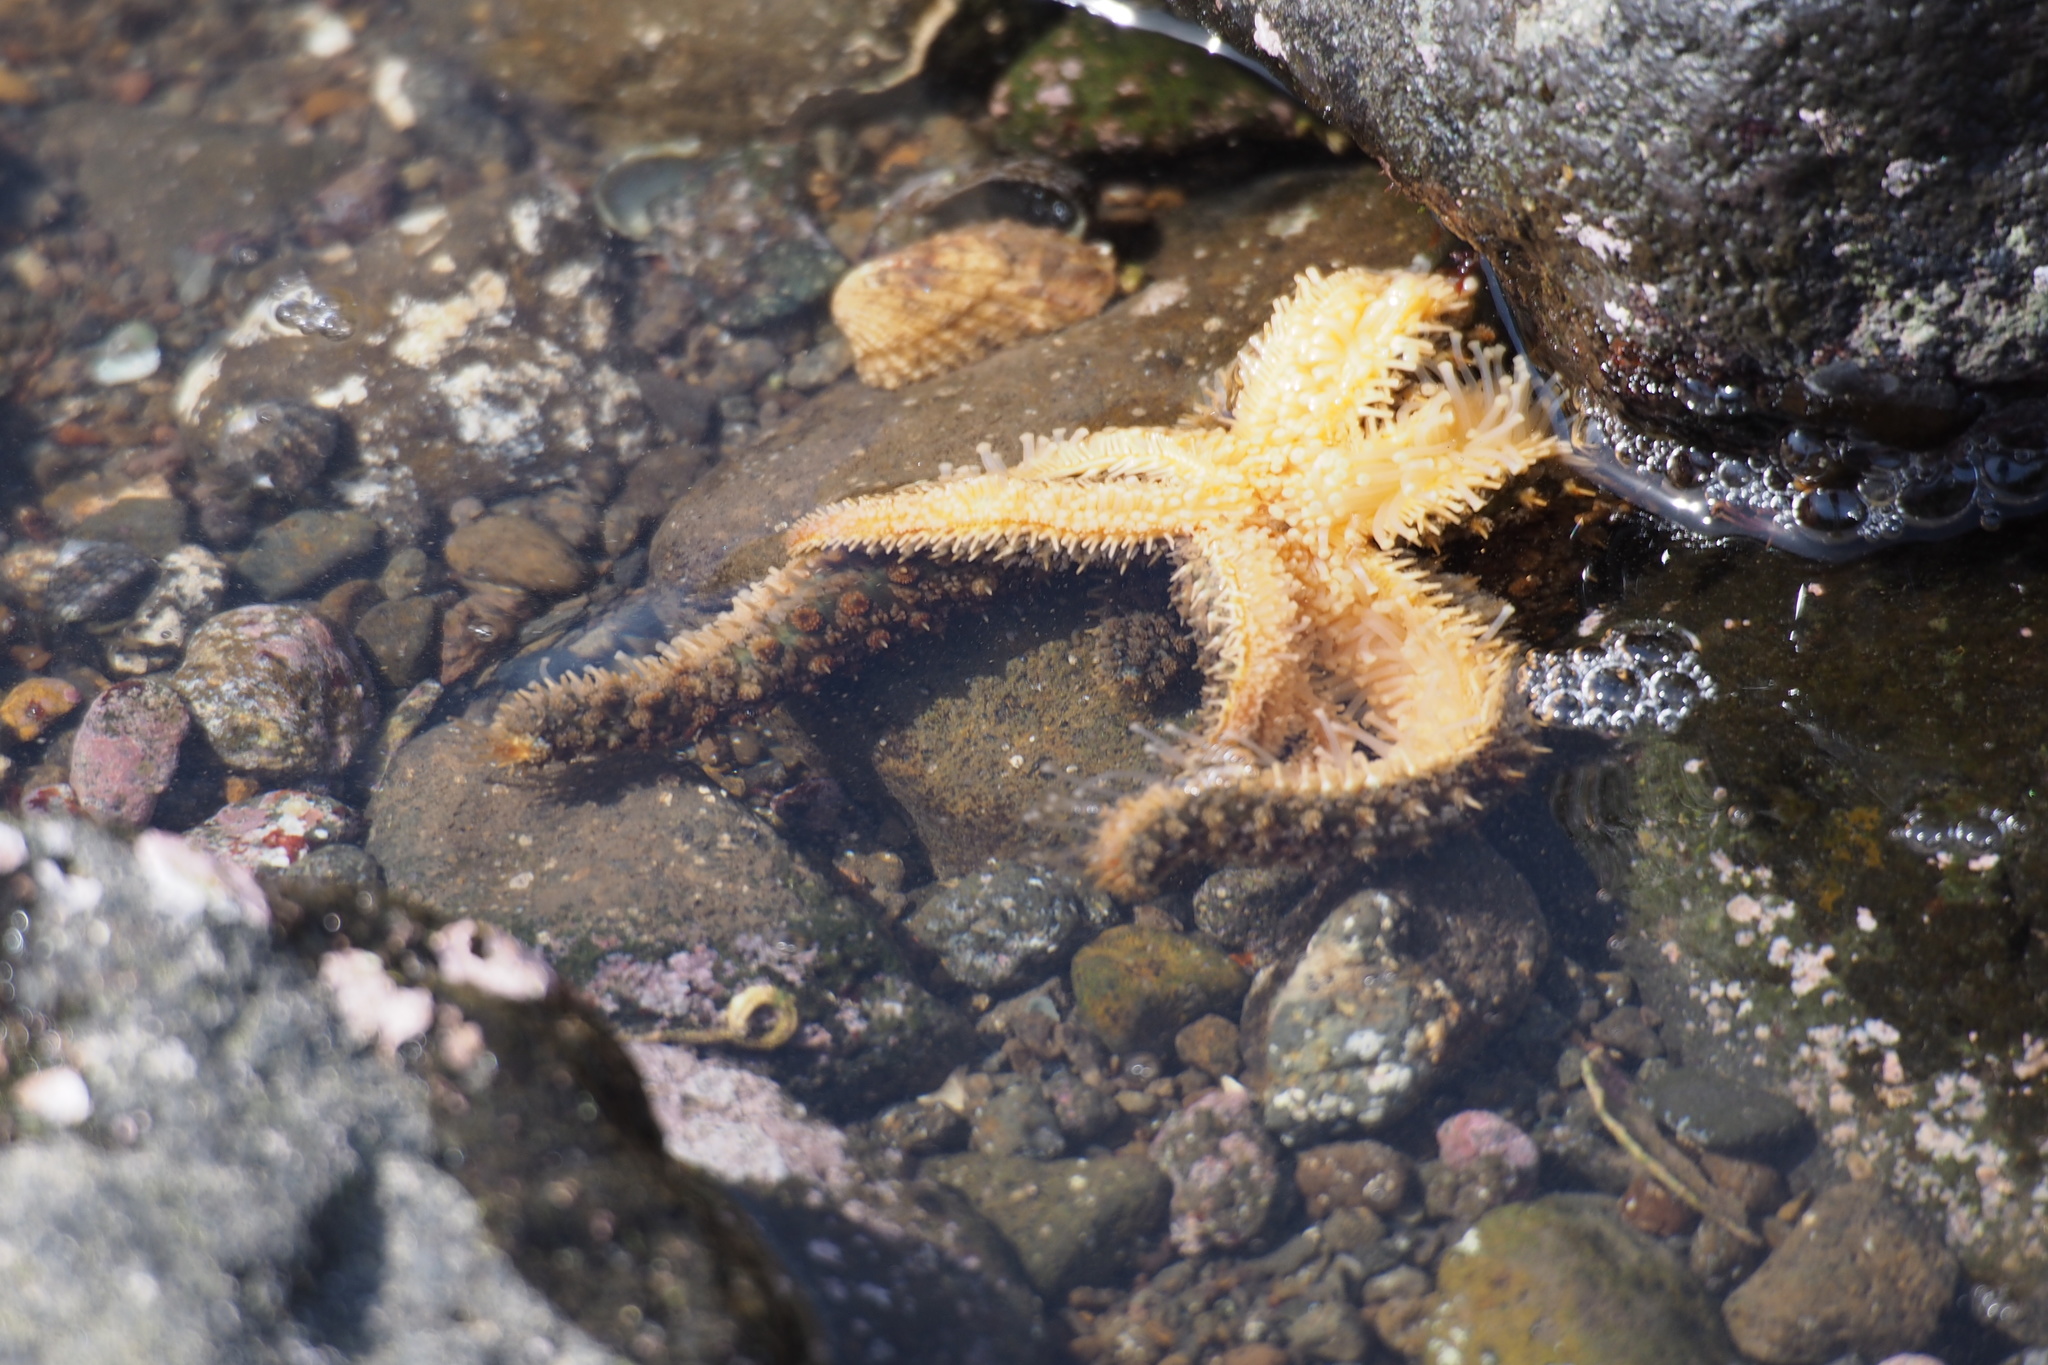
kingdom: Animalia
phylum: Echinodermata
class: Asteroidea
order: Forcipulatida
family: Asteriidae
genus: Asterias
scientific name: Asterias amurensis
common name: Flat-bottomed star
